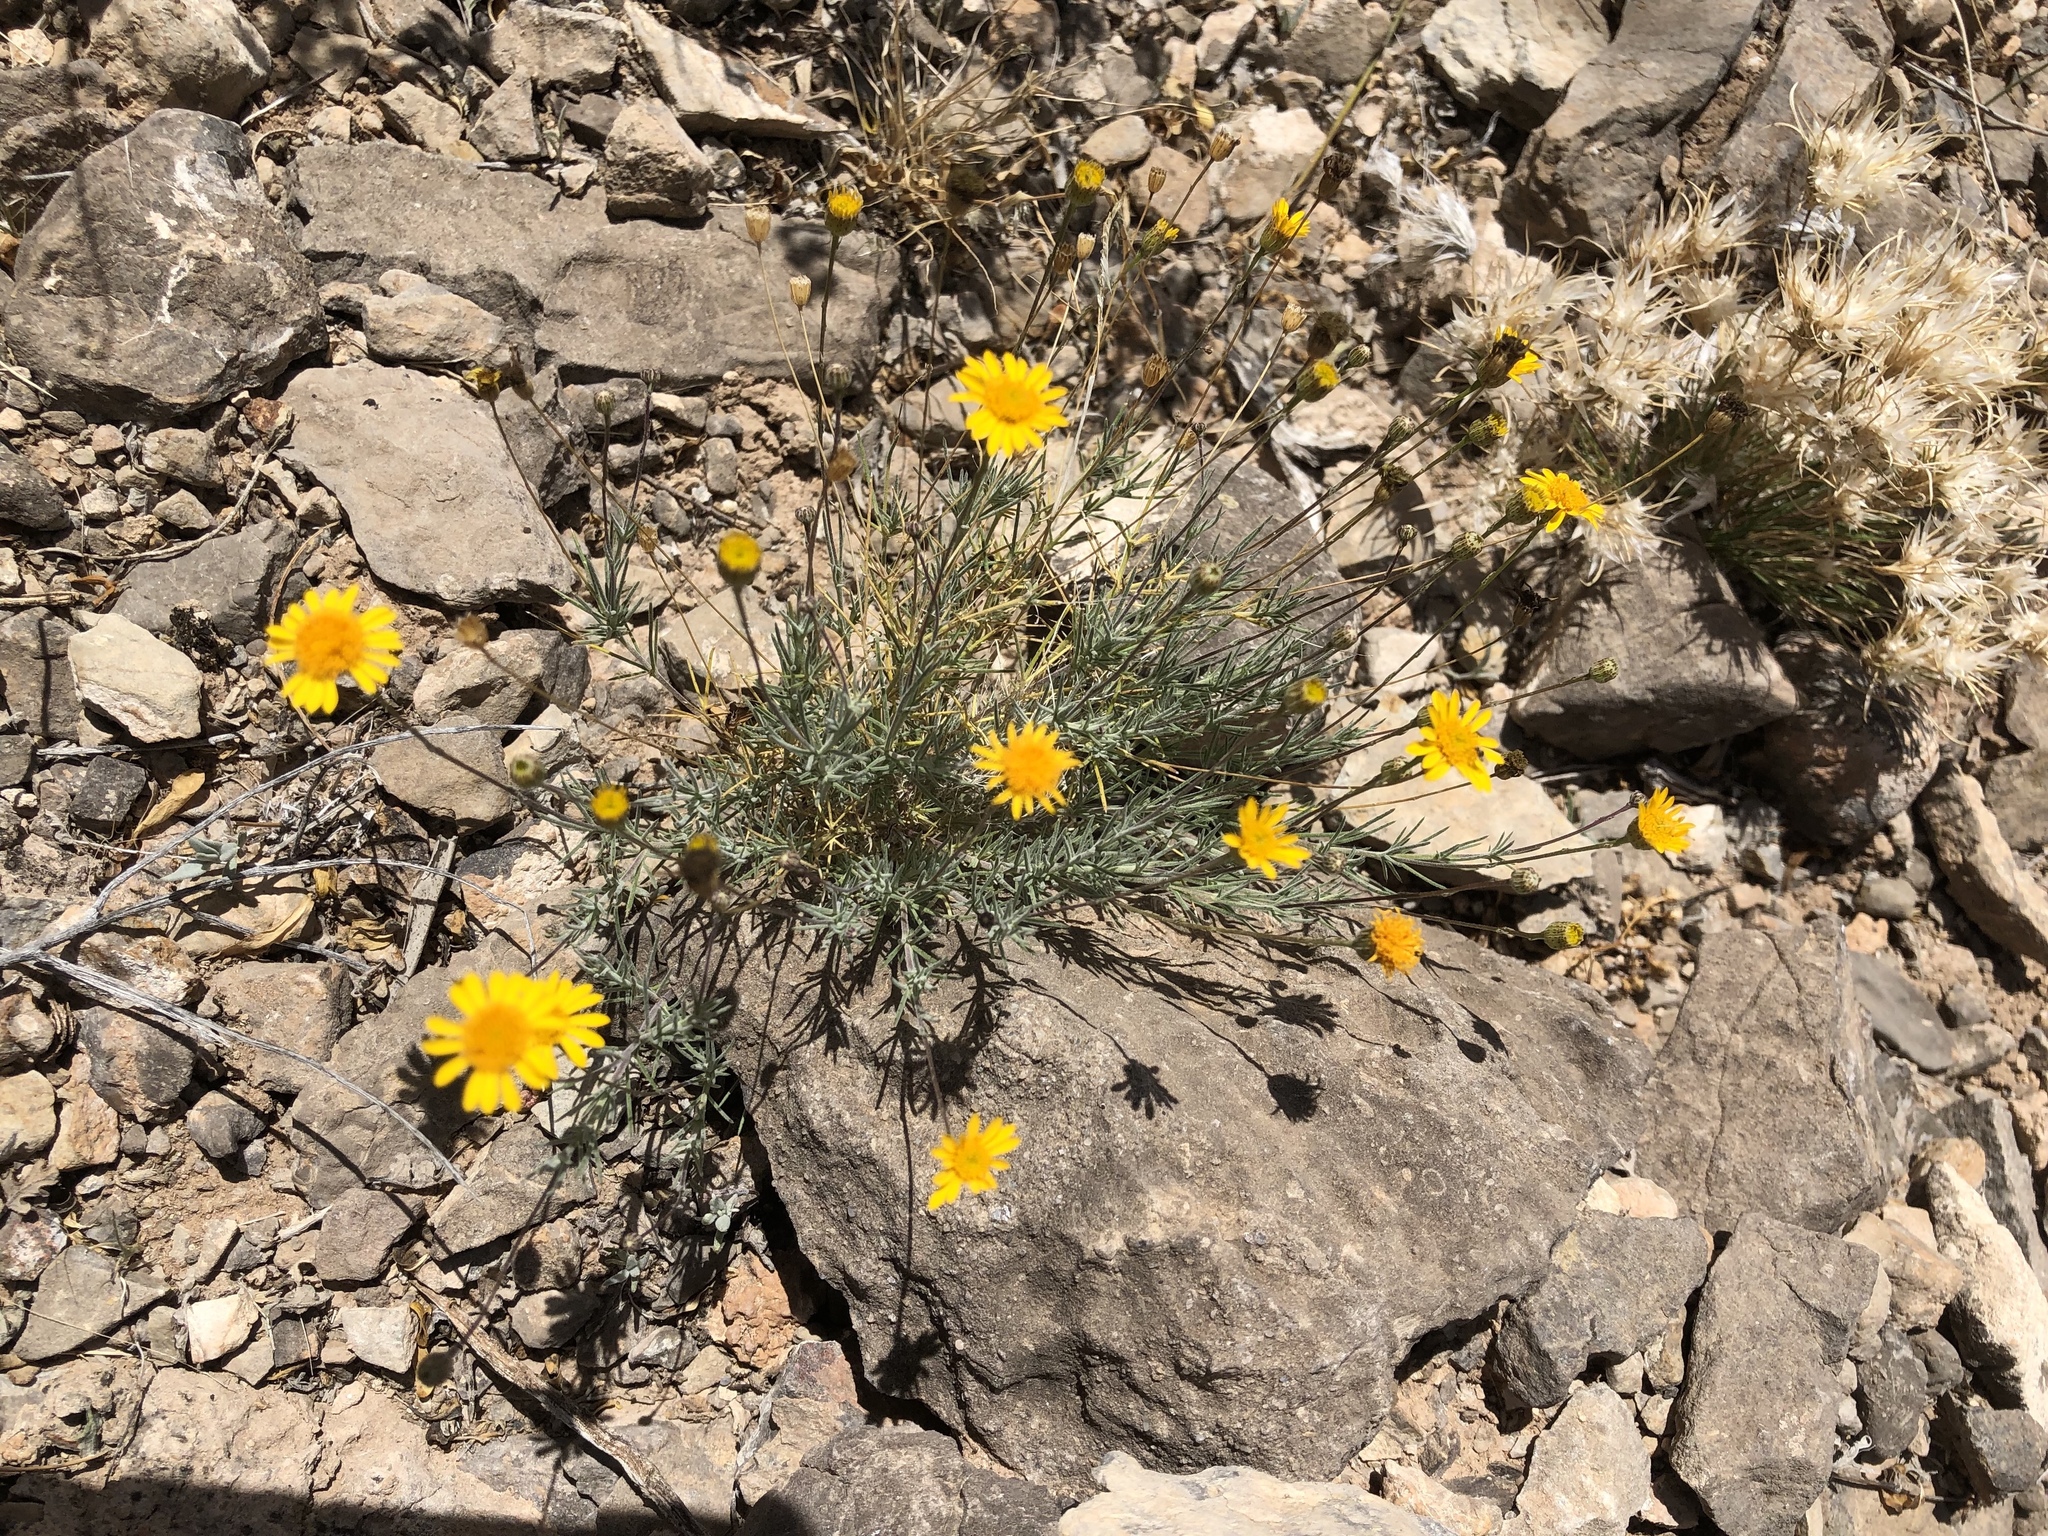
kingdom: Plantae
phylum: Tracheophyta
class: Magnoliopsida
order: Asterales
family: Asteraceae
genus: Thymophylla
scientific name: Thymophylla pentachaeta
